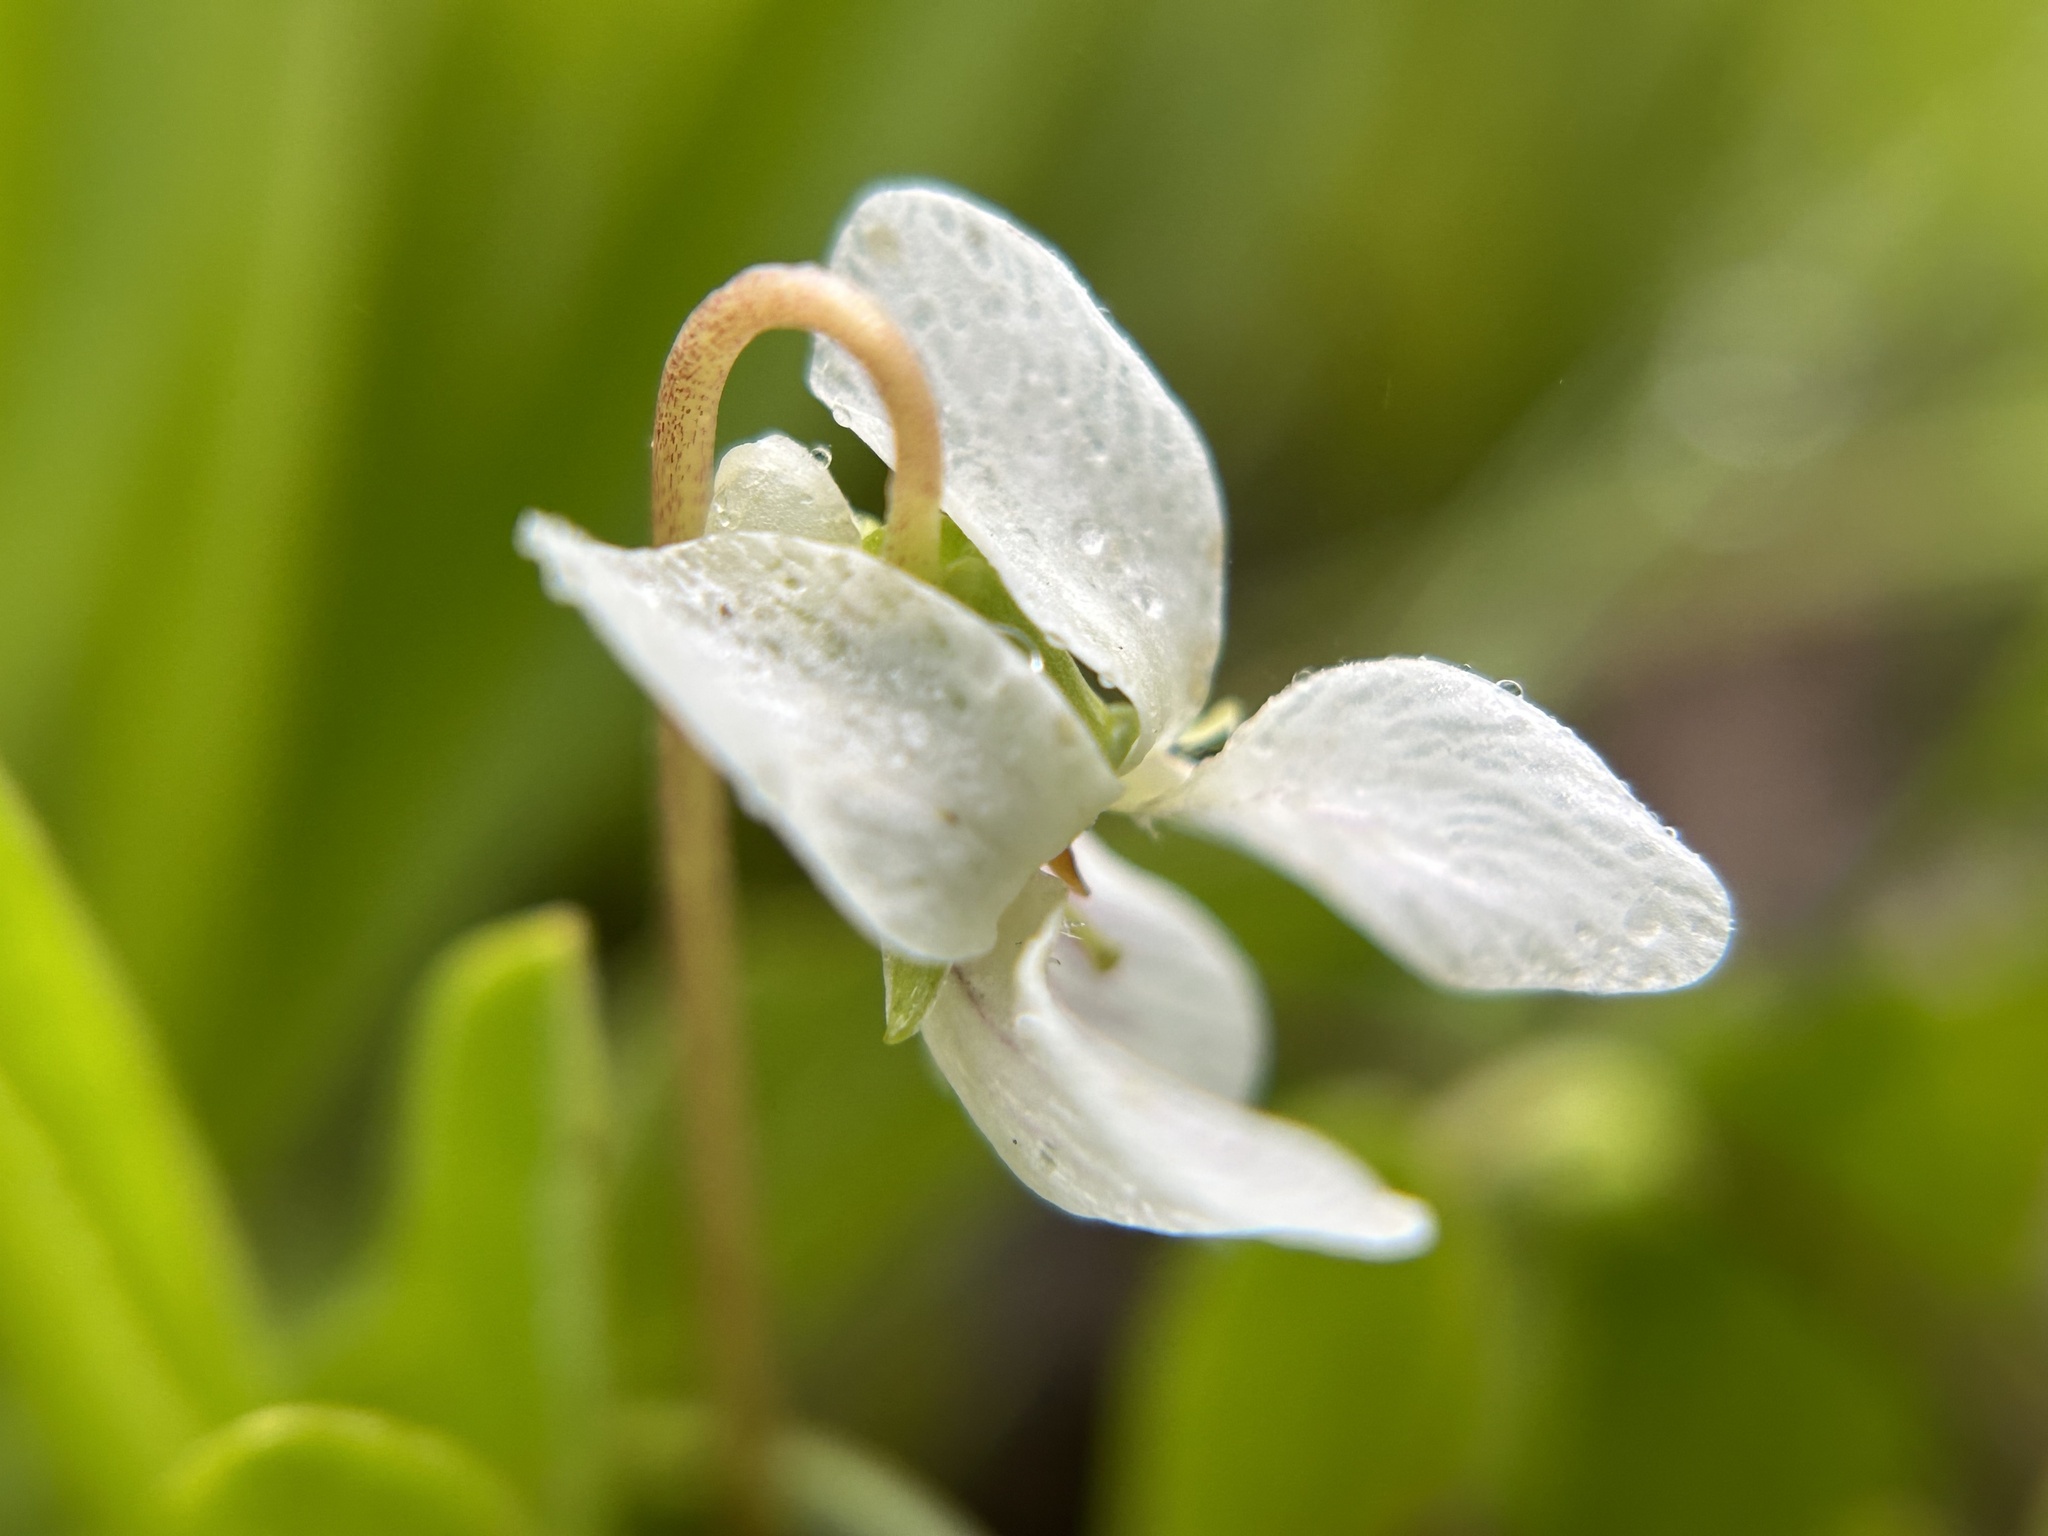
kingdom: Plantae
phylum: Tracheophyta
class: Magnoliopsida
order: Malpighiales
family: Violaceae
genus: Viola
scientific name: Viola macloskeyi
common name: Macloskey's violet
